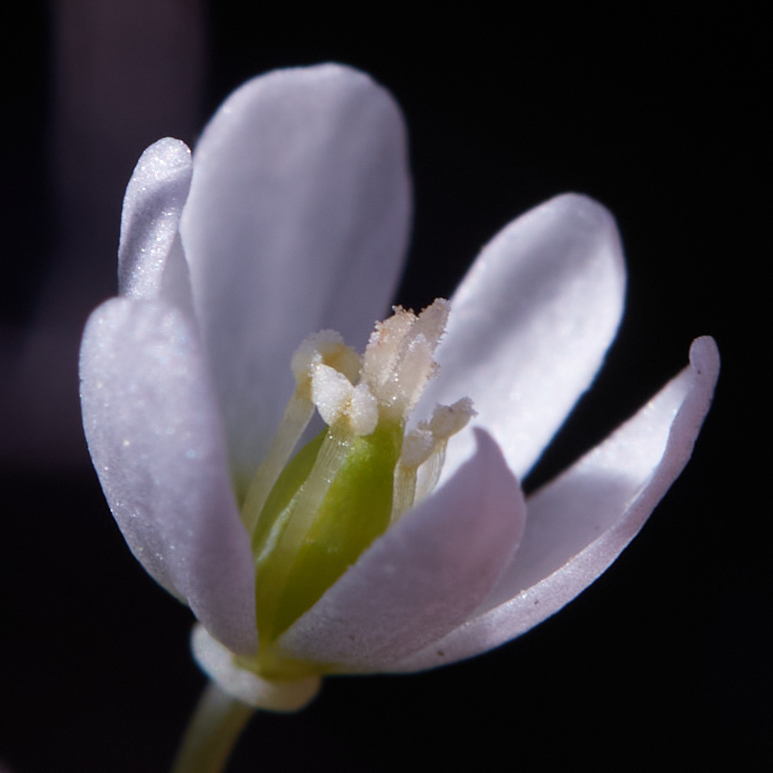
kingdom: Plantae
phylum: Tracheophyta
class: Magnoliopsida
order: Ranunculales
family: Papaveraceae
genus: Meconella
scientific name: Meconella oregana
